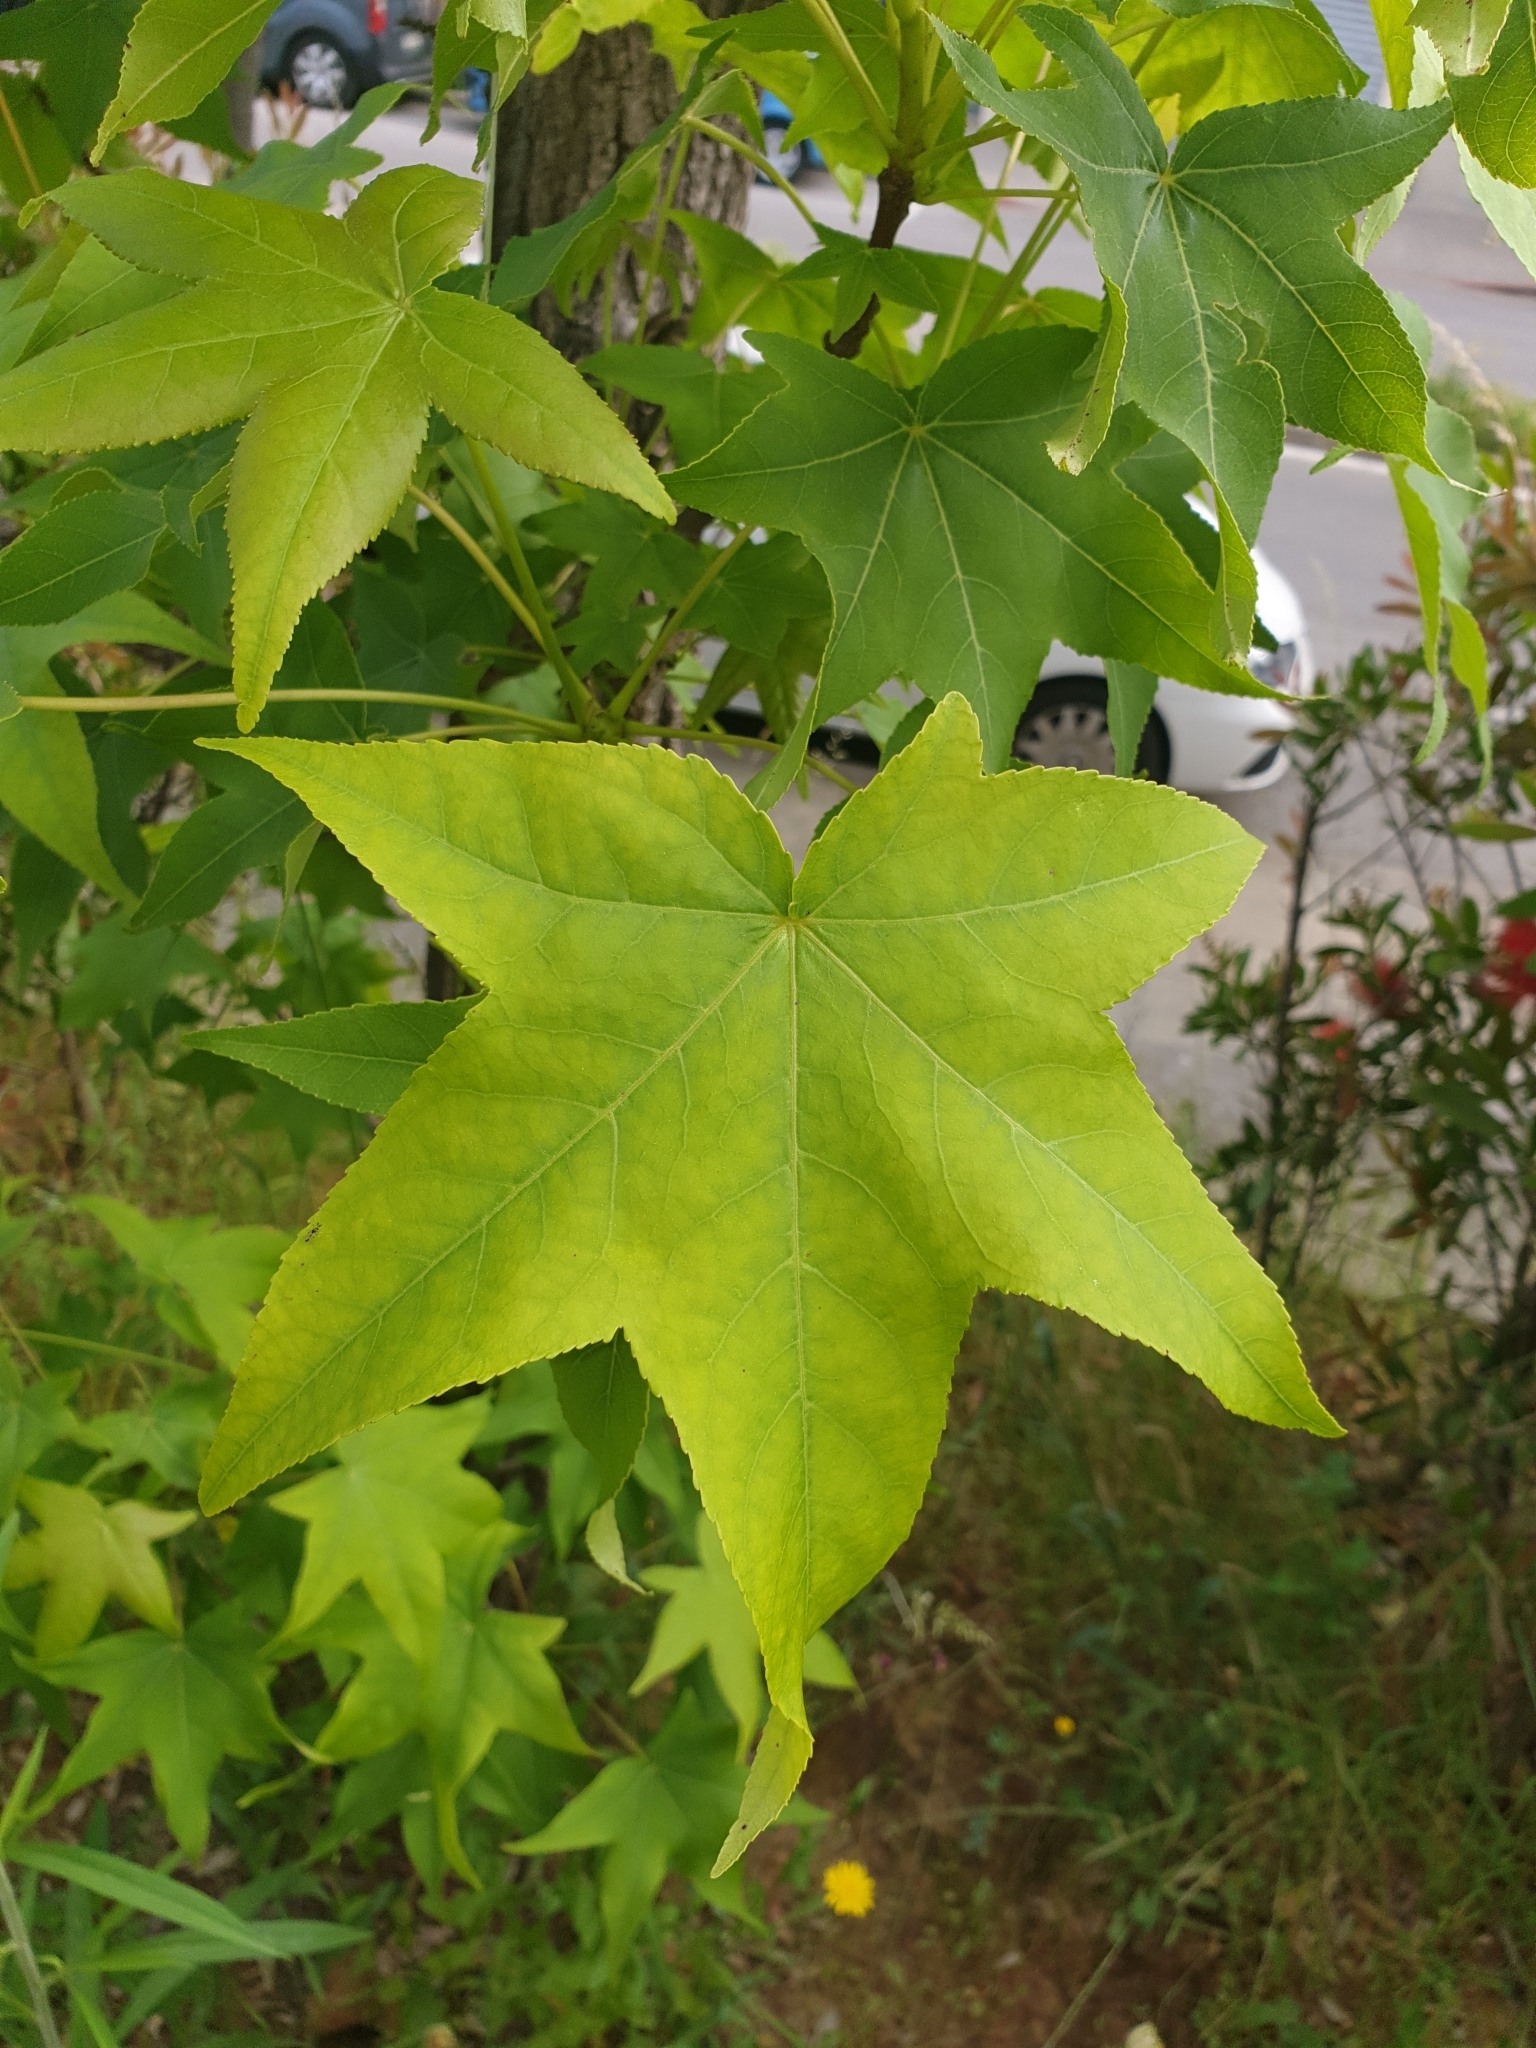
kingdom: Plantae
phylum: Tracheophyta
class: Magnoliopsida
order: Saxifragales
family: Altingiaceae
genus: Liquidambar
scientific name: Liquidambar styraciflua
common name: Sweet gum
